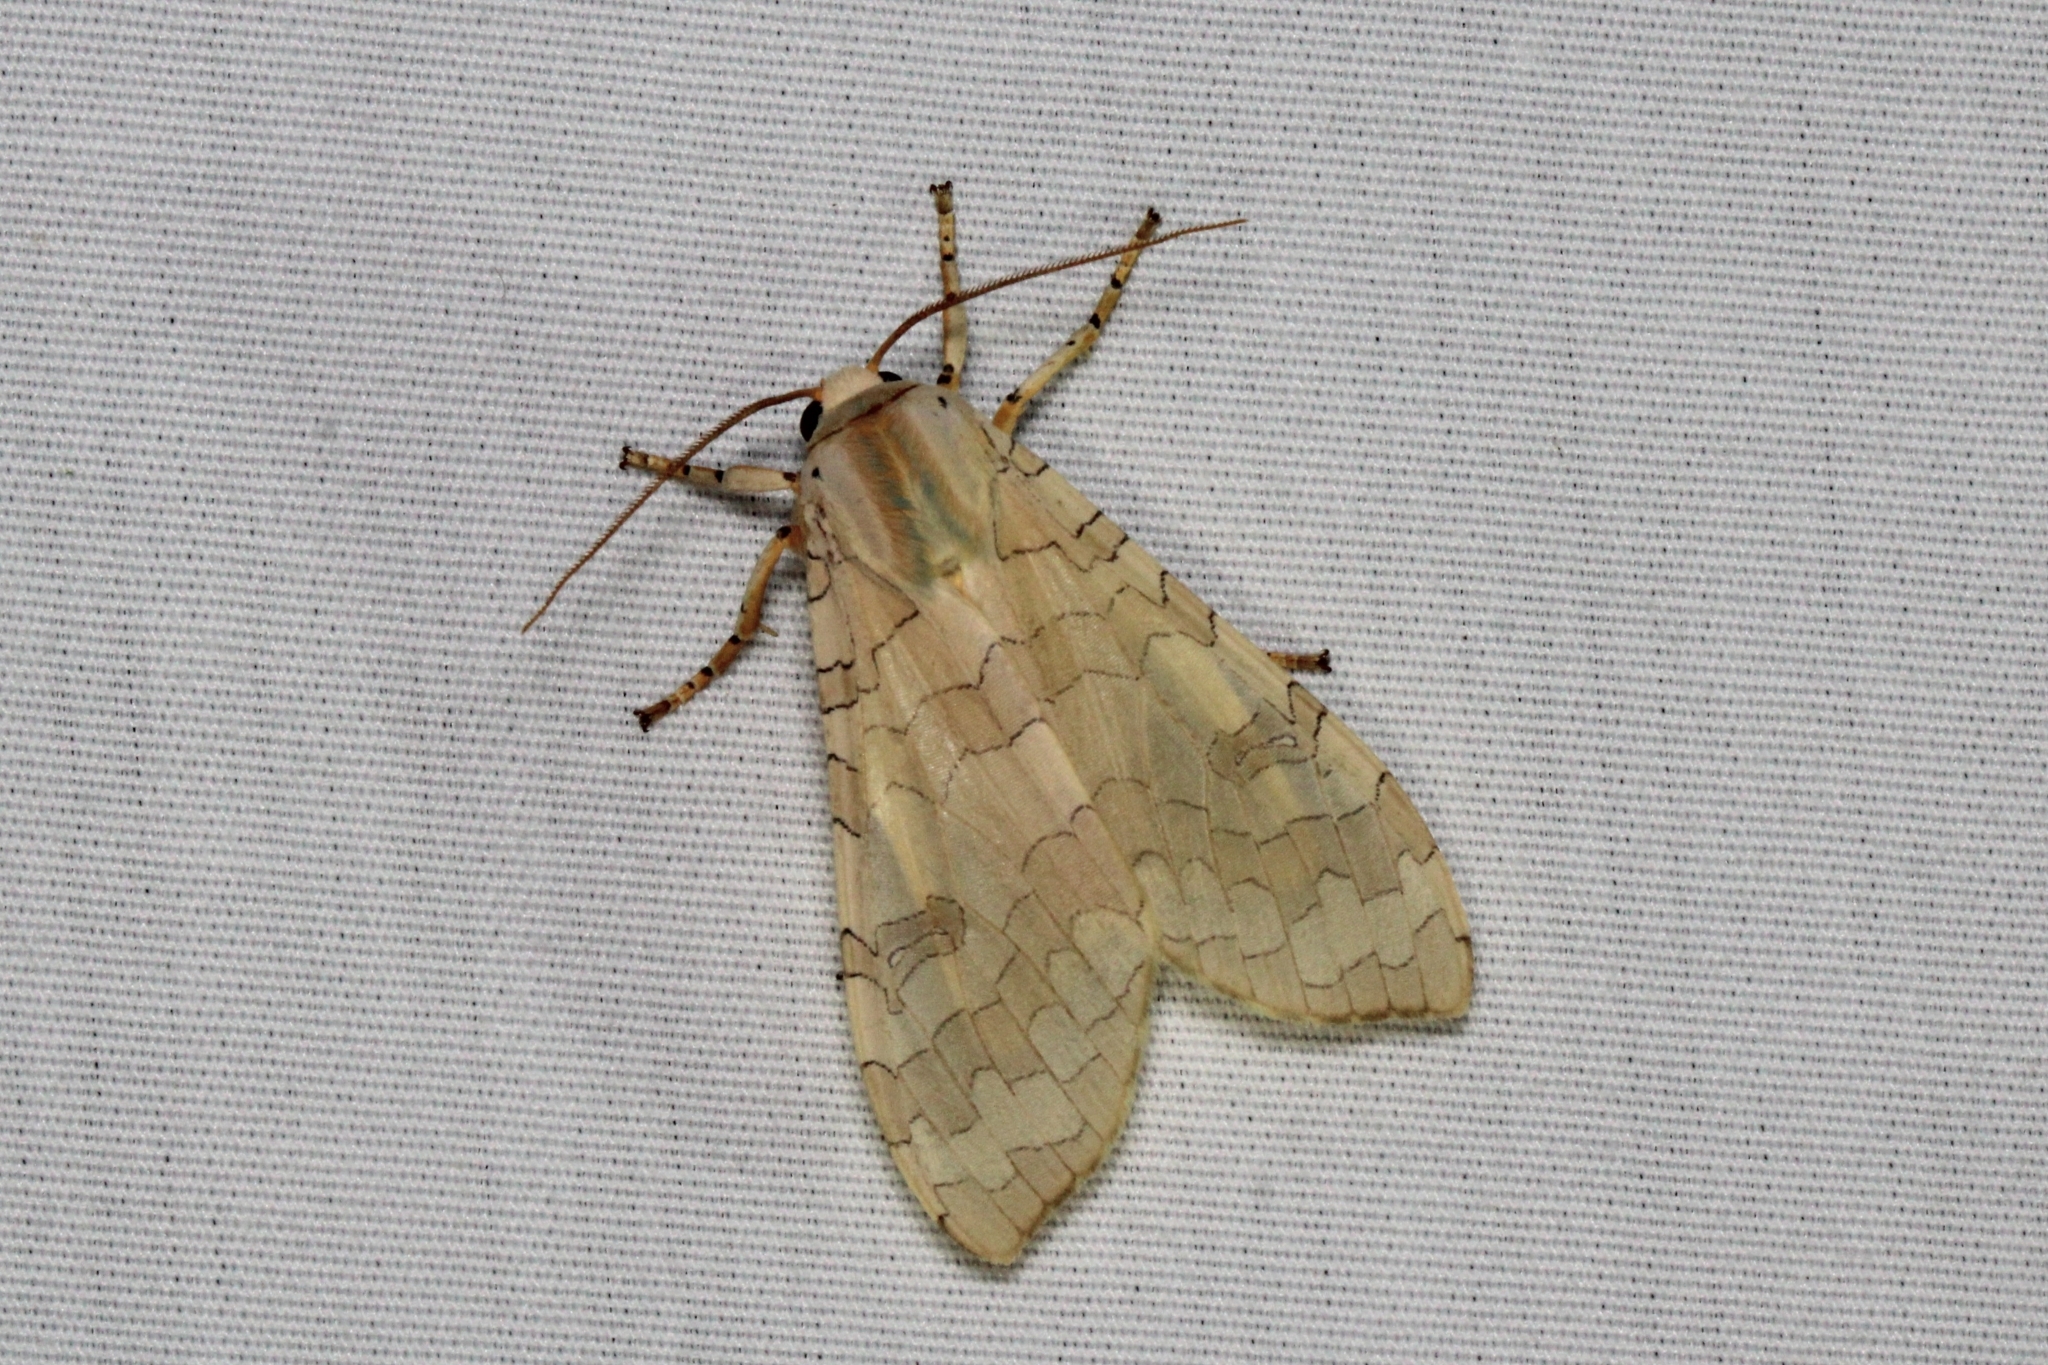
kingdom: Animalia
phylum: Arthropoda
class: Insecta
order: Lepidoptera
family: Erebidae
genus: Halysidota
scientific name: Halysidota
